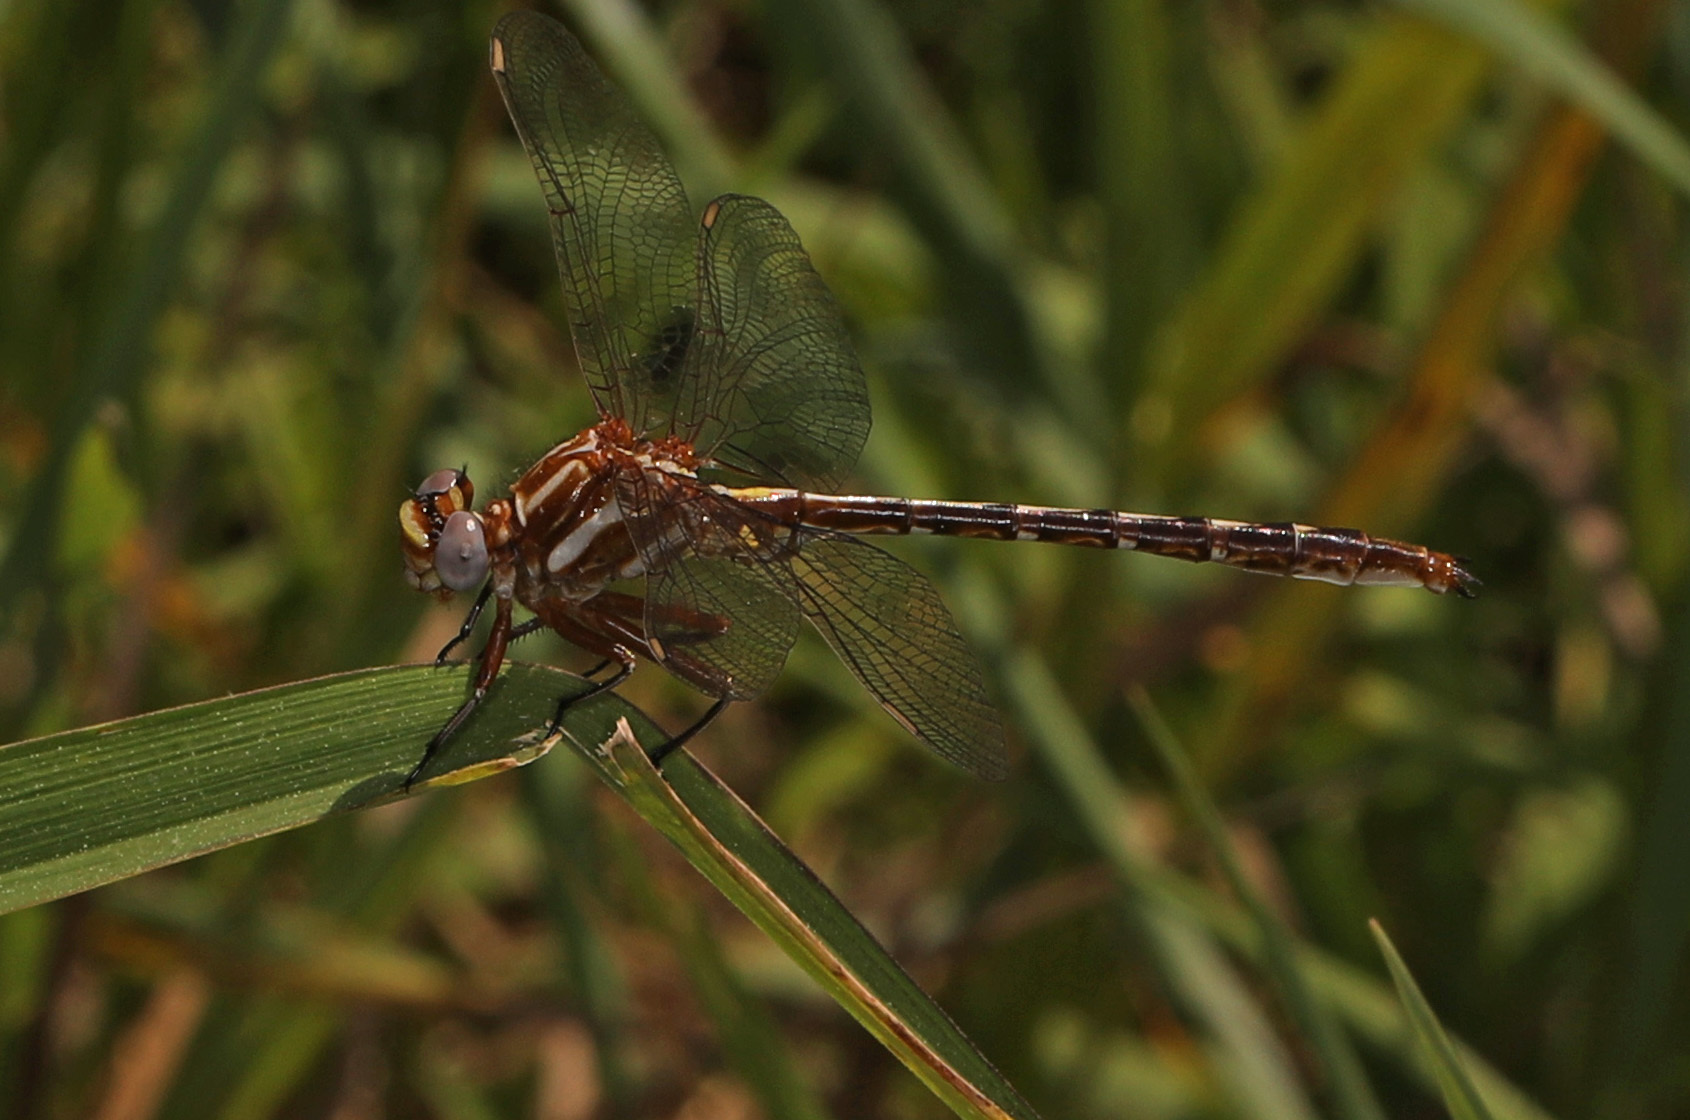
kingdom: Animalia
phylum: Arthropoda
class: Insecta
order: Odonata
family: Gomphidae
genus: Phanogomphus
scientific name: Phanogomphus lividus
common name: Ashy clubtail
